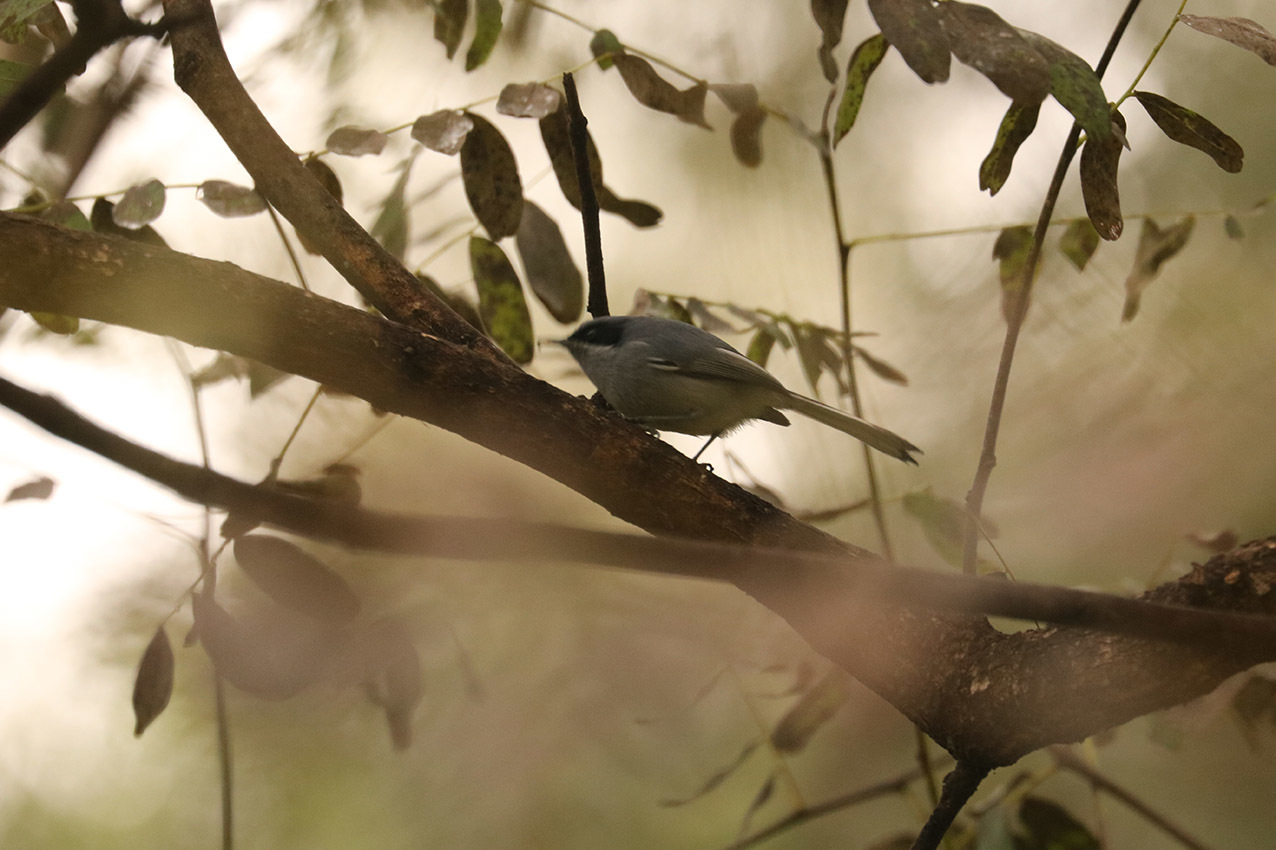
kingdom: Animalia
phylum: Chordata
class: Aves
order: Passeriformes
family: Polioptilidae
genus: Polioptila
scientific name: Polioptila dumicola
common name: Masked gnatcatcher
